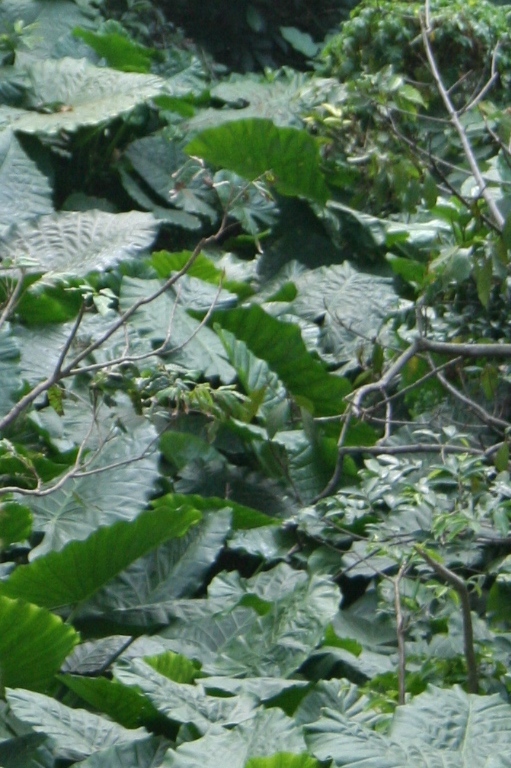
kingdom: Plantae
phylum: Tracheophyta
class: Liliopsida
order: Alismatales
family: Araceae
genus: Alocasia
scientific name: Alocasia odora
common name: Asian taro
